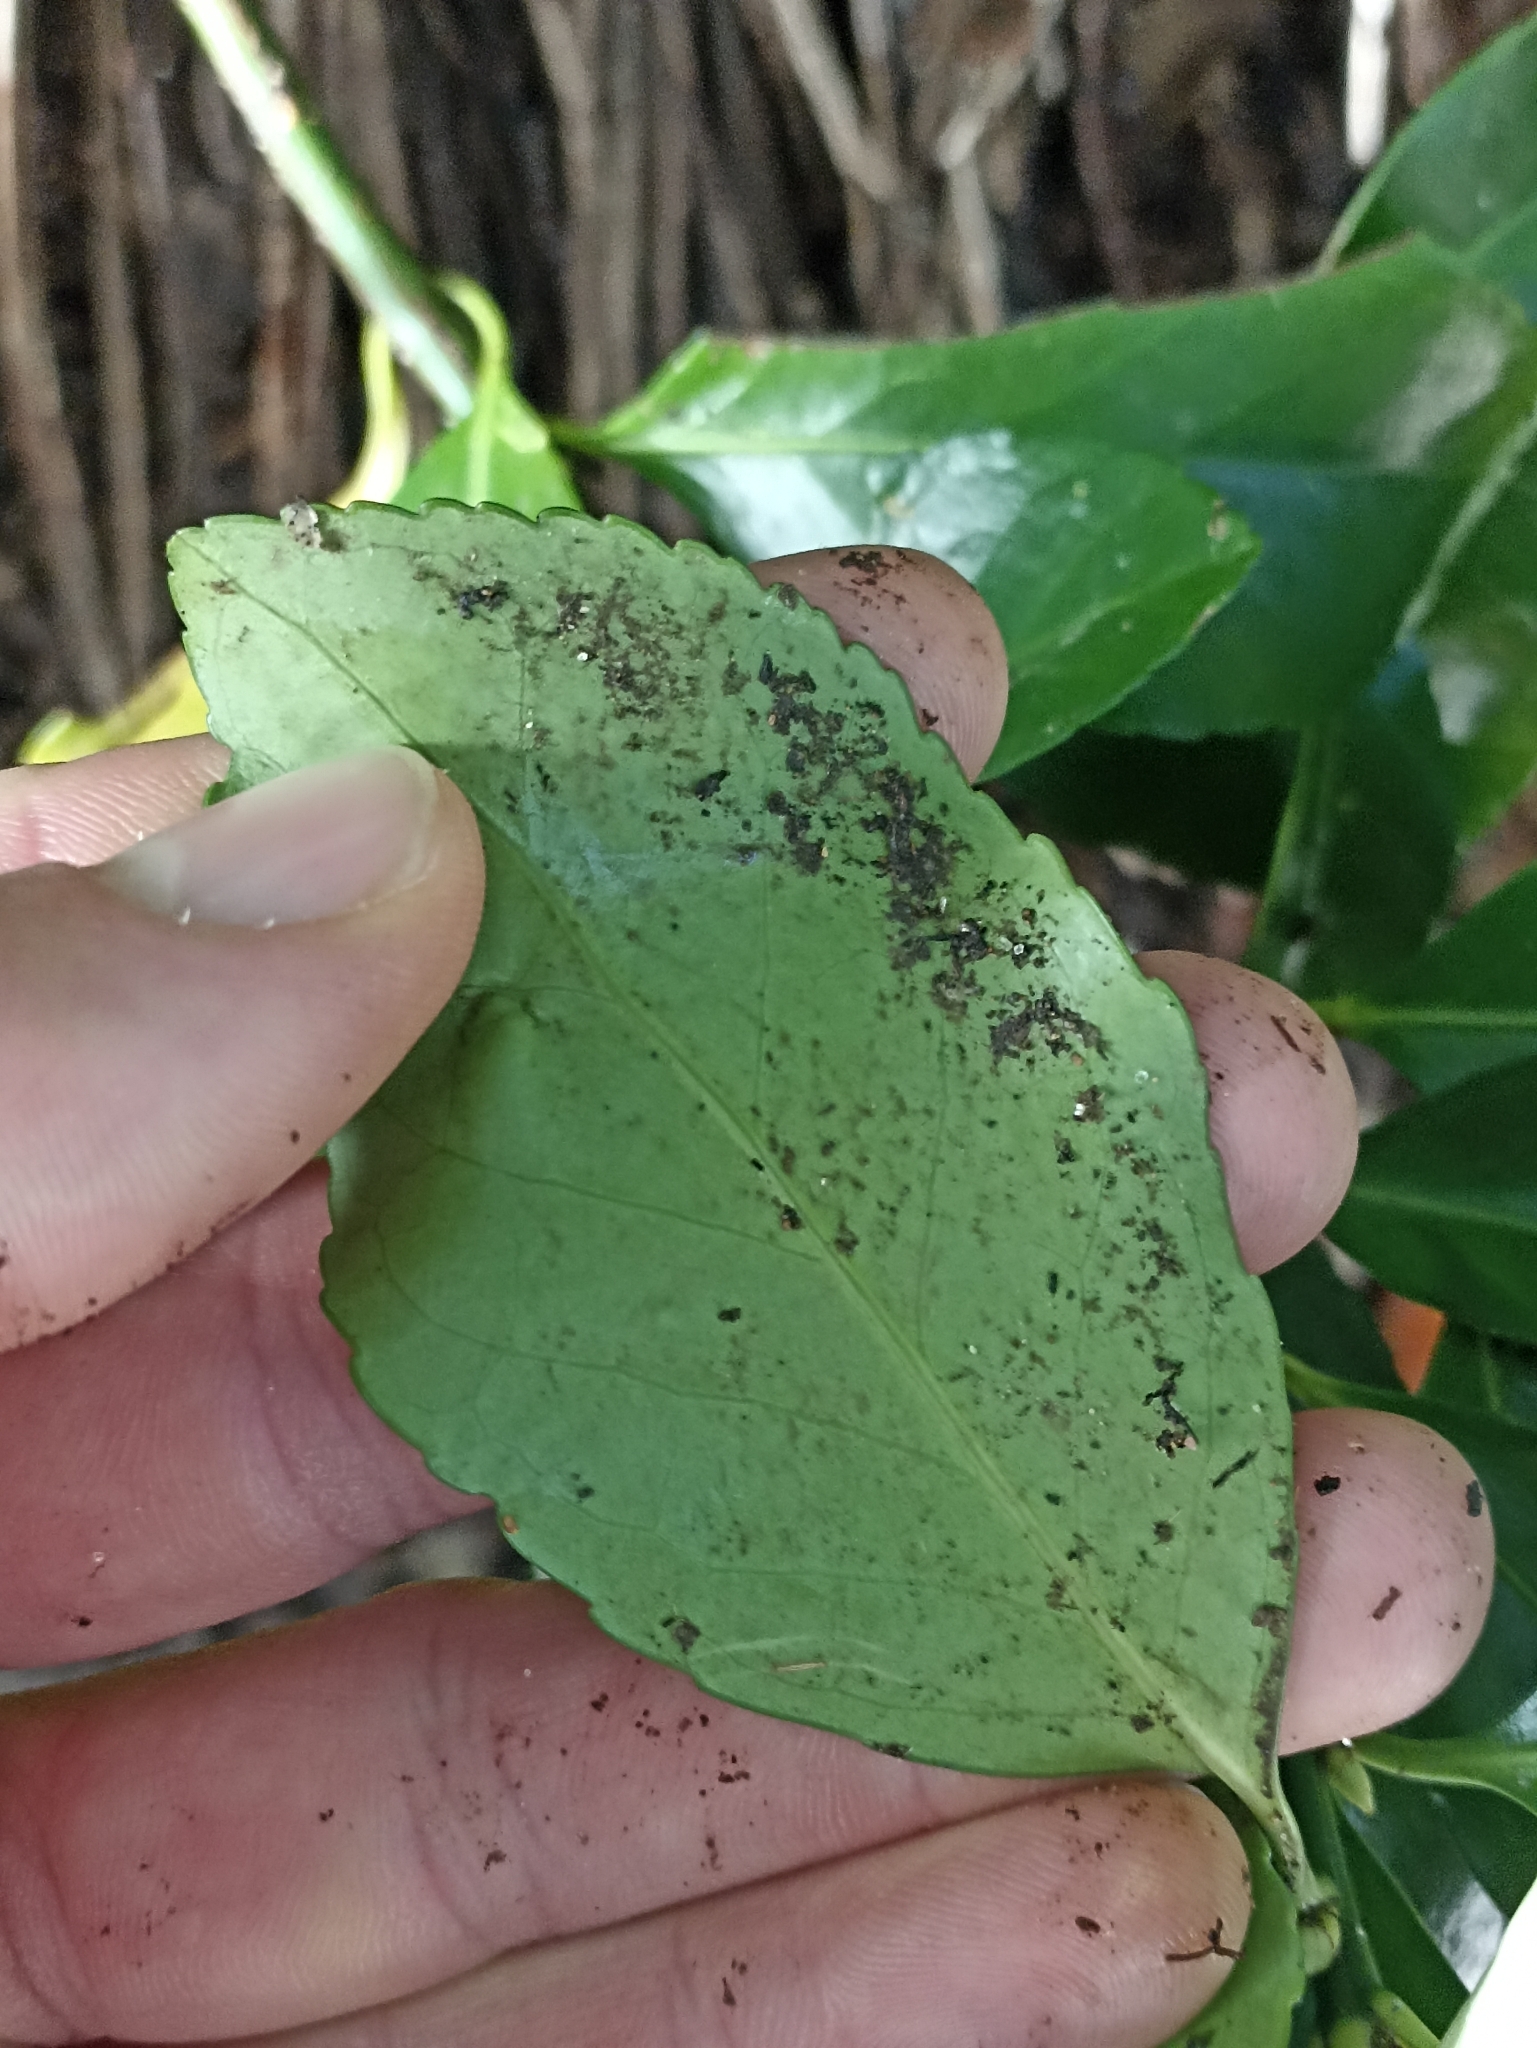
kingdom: Plantae
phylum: Tracheophyta
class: Magnoliopsida
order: Celastrales
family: Celastraceae
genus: Euonymus
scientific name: Euonymus japonicus
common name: Japanese spindletree
